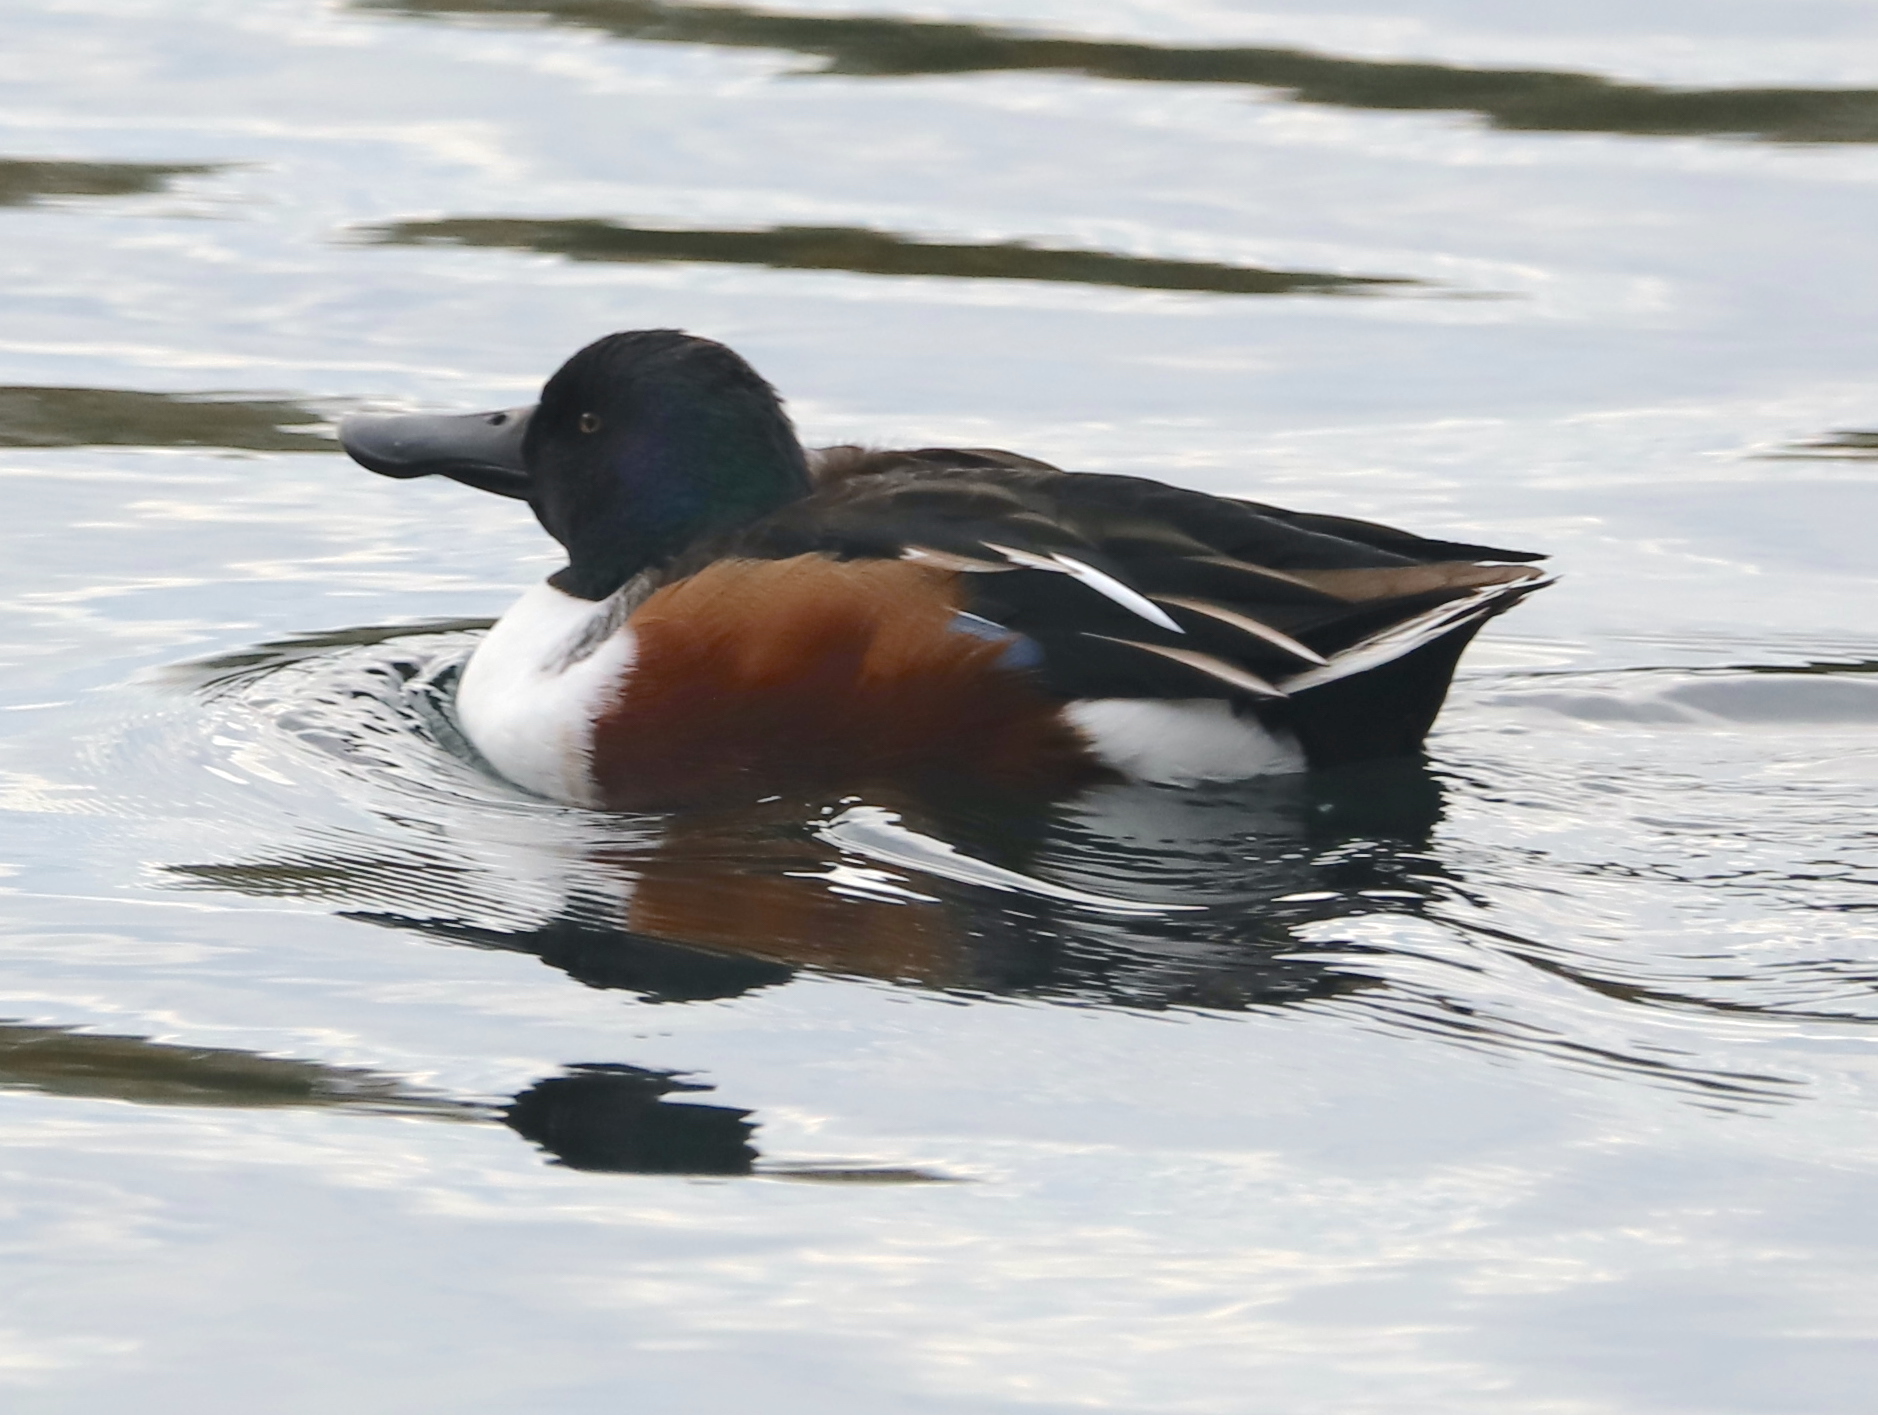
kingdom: Animalia
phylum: Chordata
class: Aves
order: Anseriformes
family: Anatidae
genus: Spatula
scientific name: Spatula clypeata
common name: Northern shoveler
